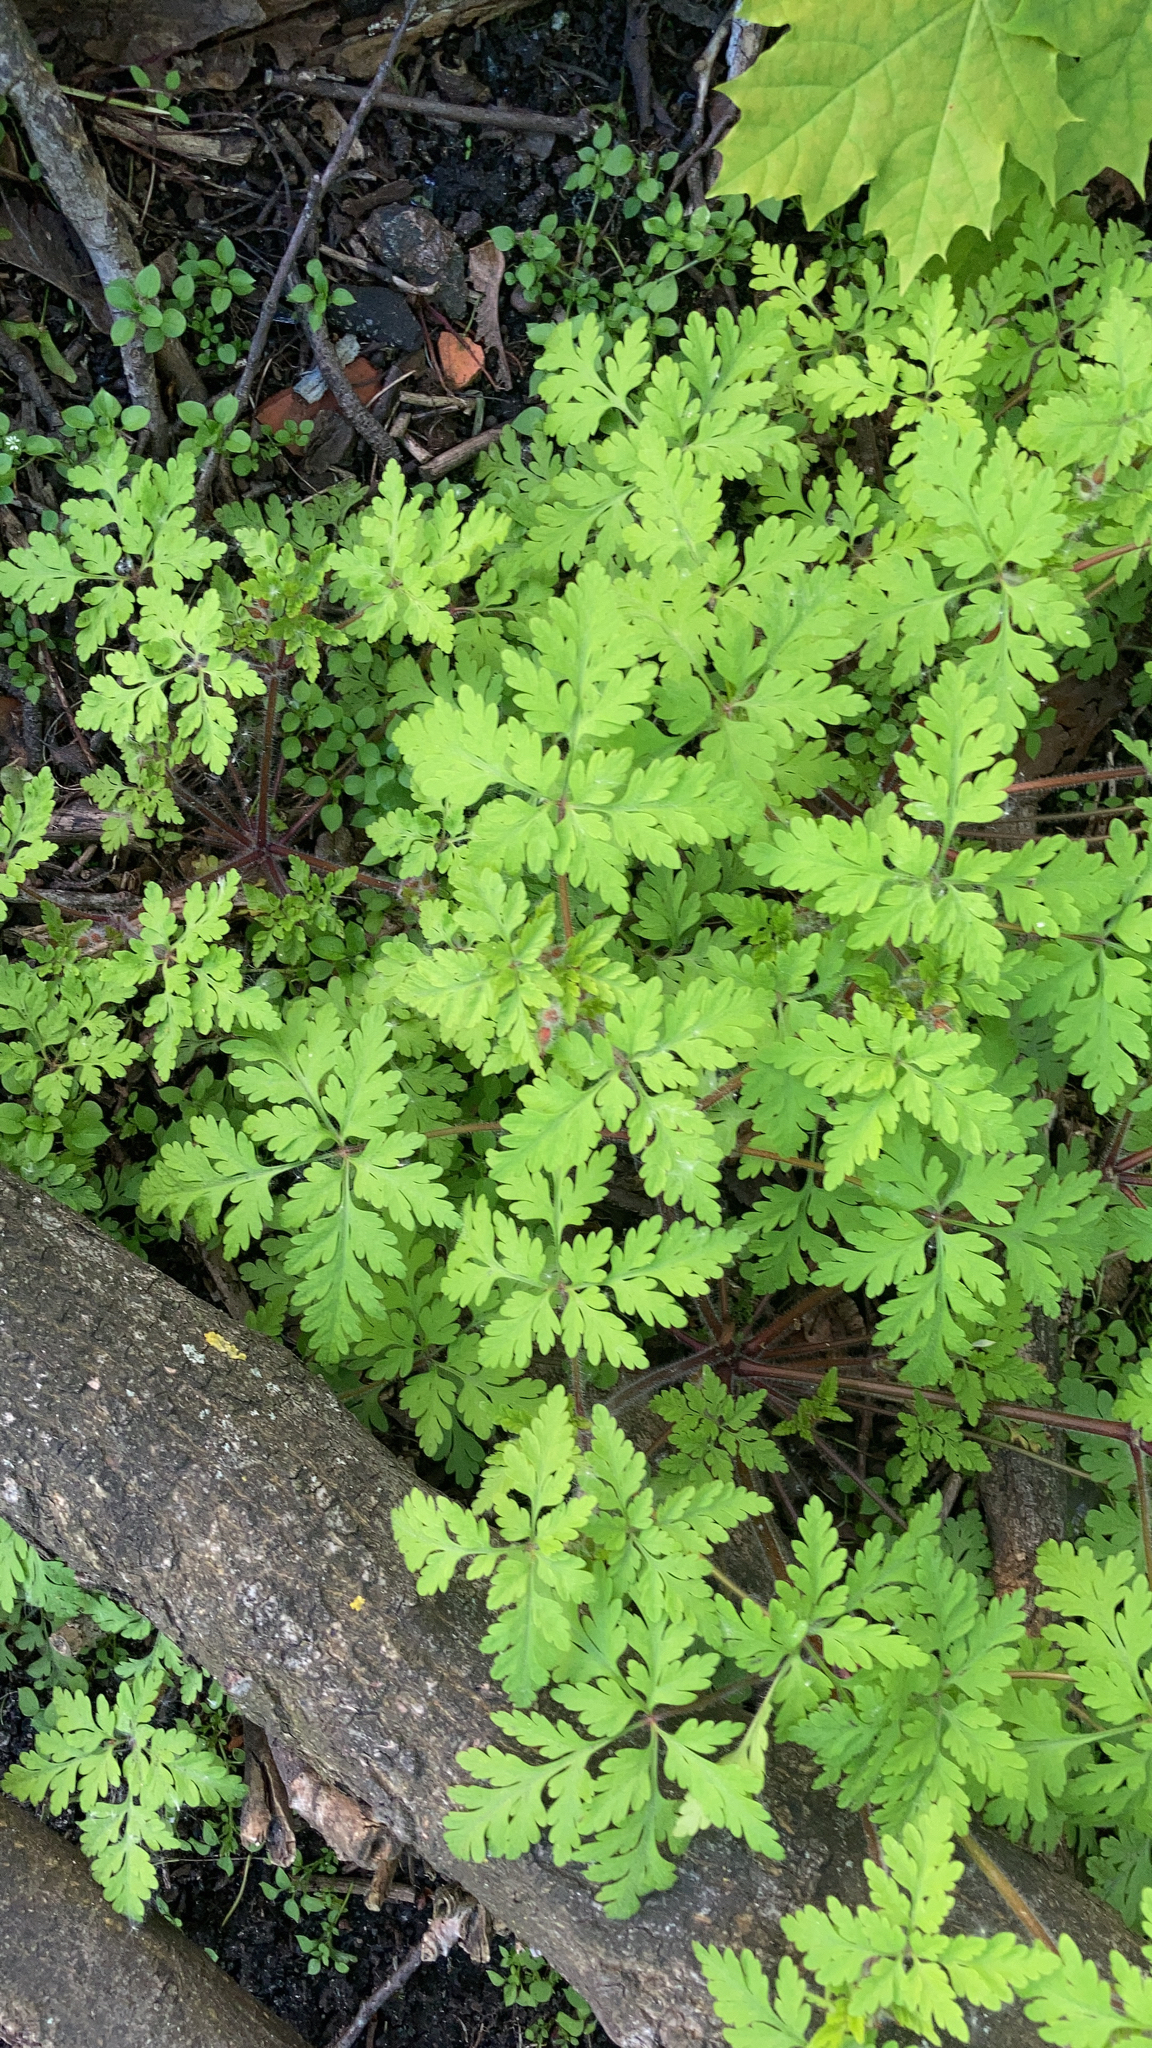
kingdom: Plantae
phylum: Tracheophyta
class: Magnoliopsida
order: Geraniales
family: Geraniaceae
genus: Geranium
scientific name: Geranium robertianum
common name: Herb-robert
